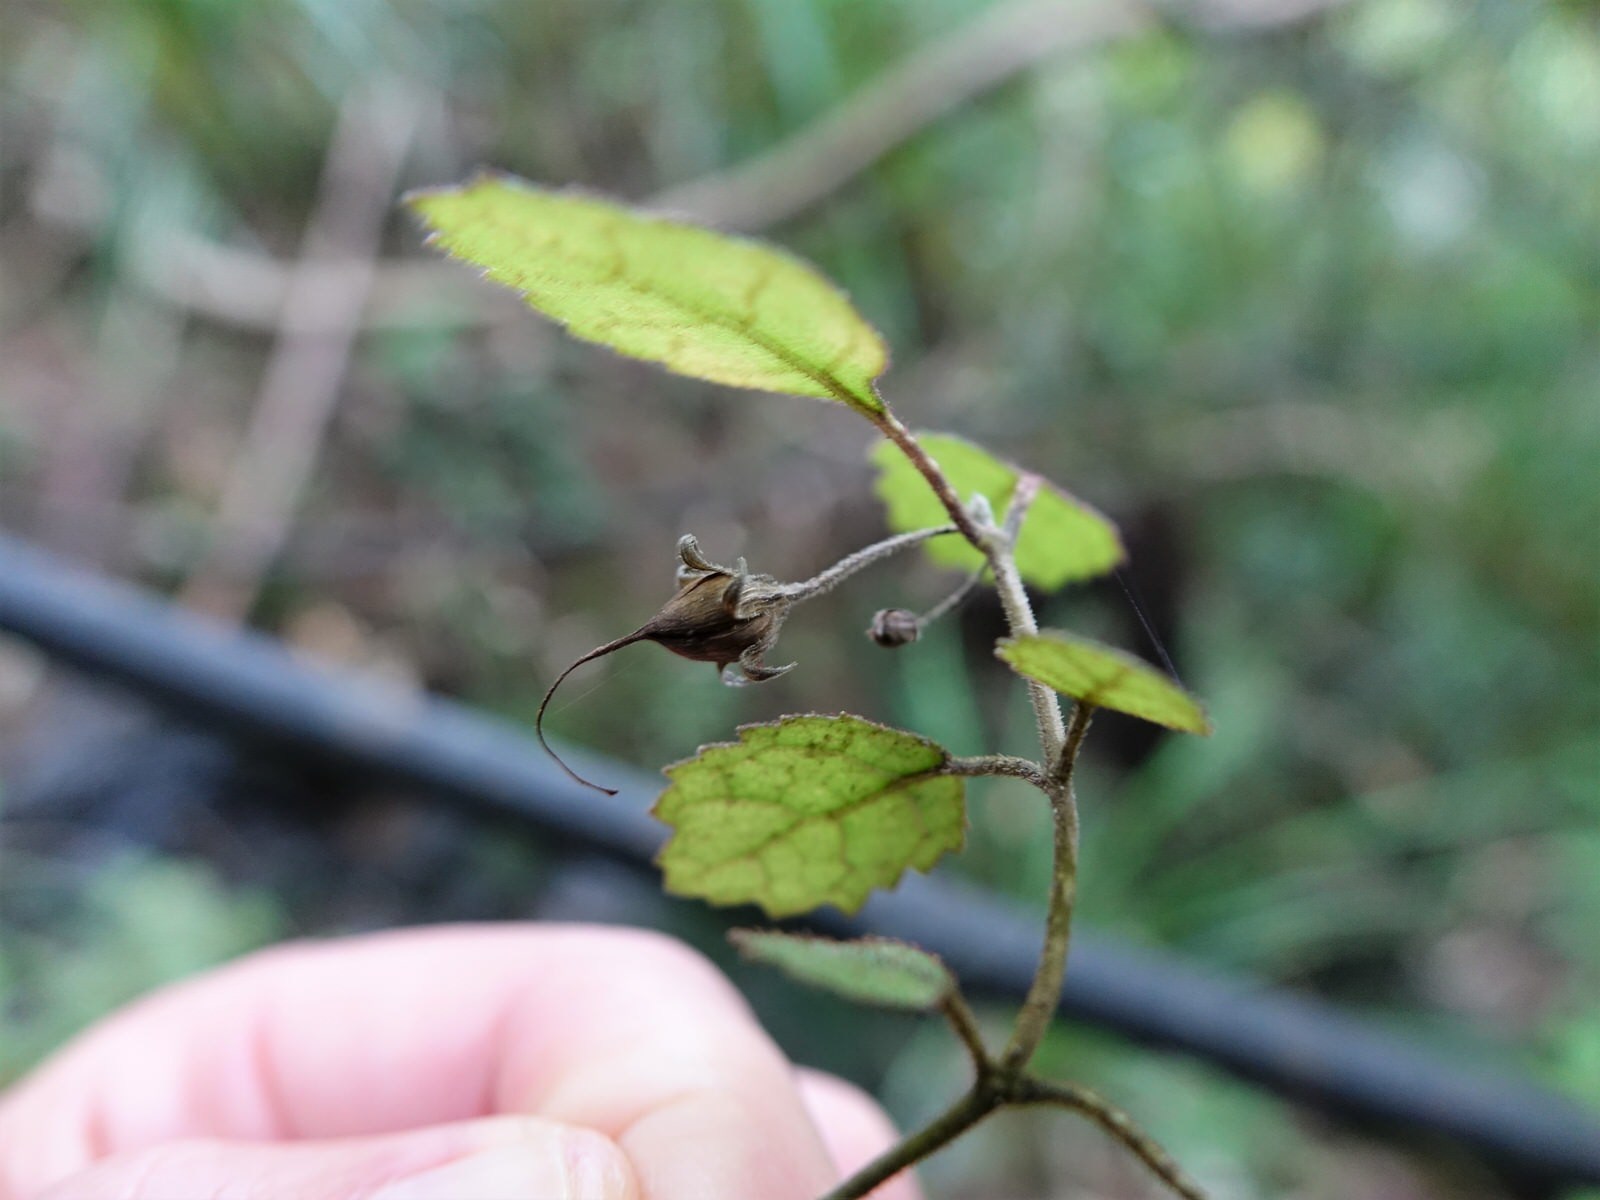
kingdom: Plantae
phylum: Tracheophyta
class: Magnoliopsida
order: Lamiales
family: Gesneriaceae
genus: Rhabdothamnus
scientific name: Rhabdothamnus solandri
